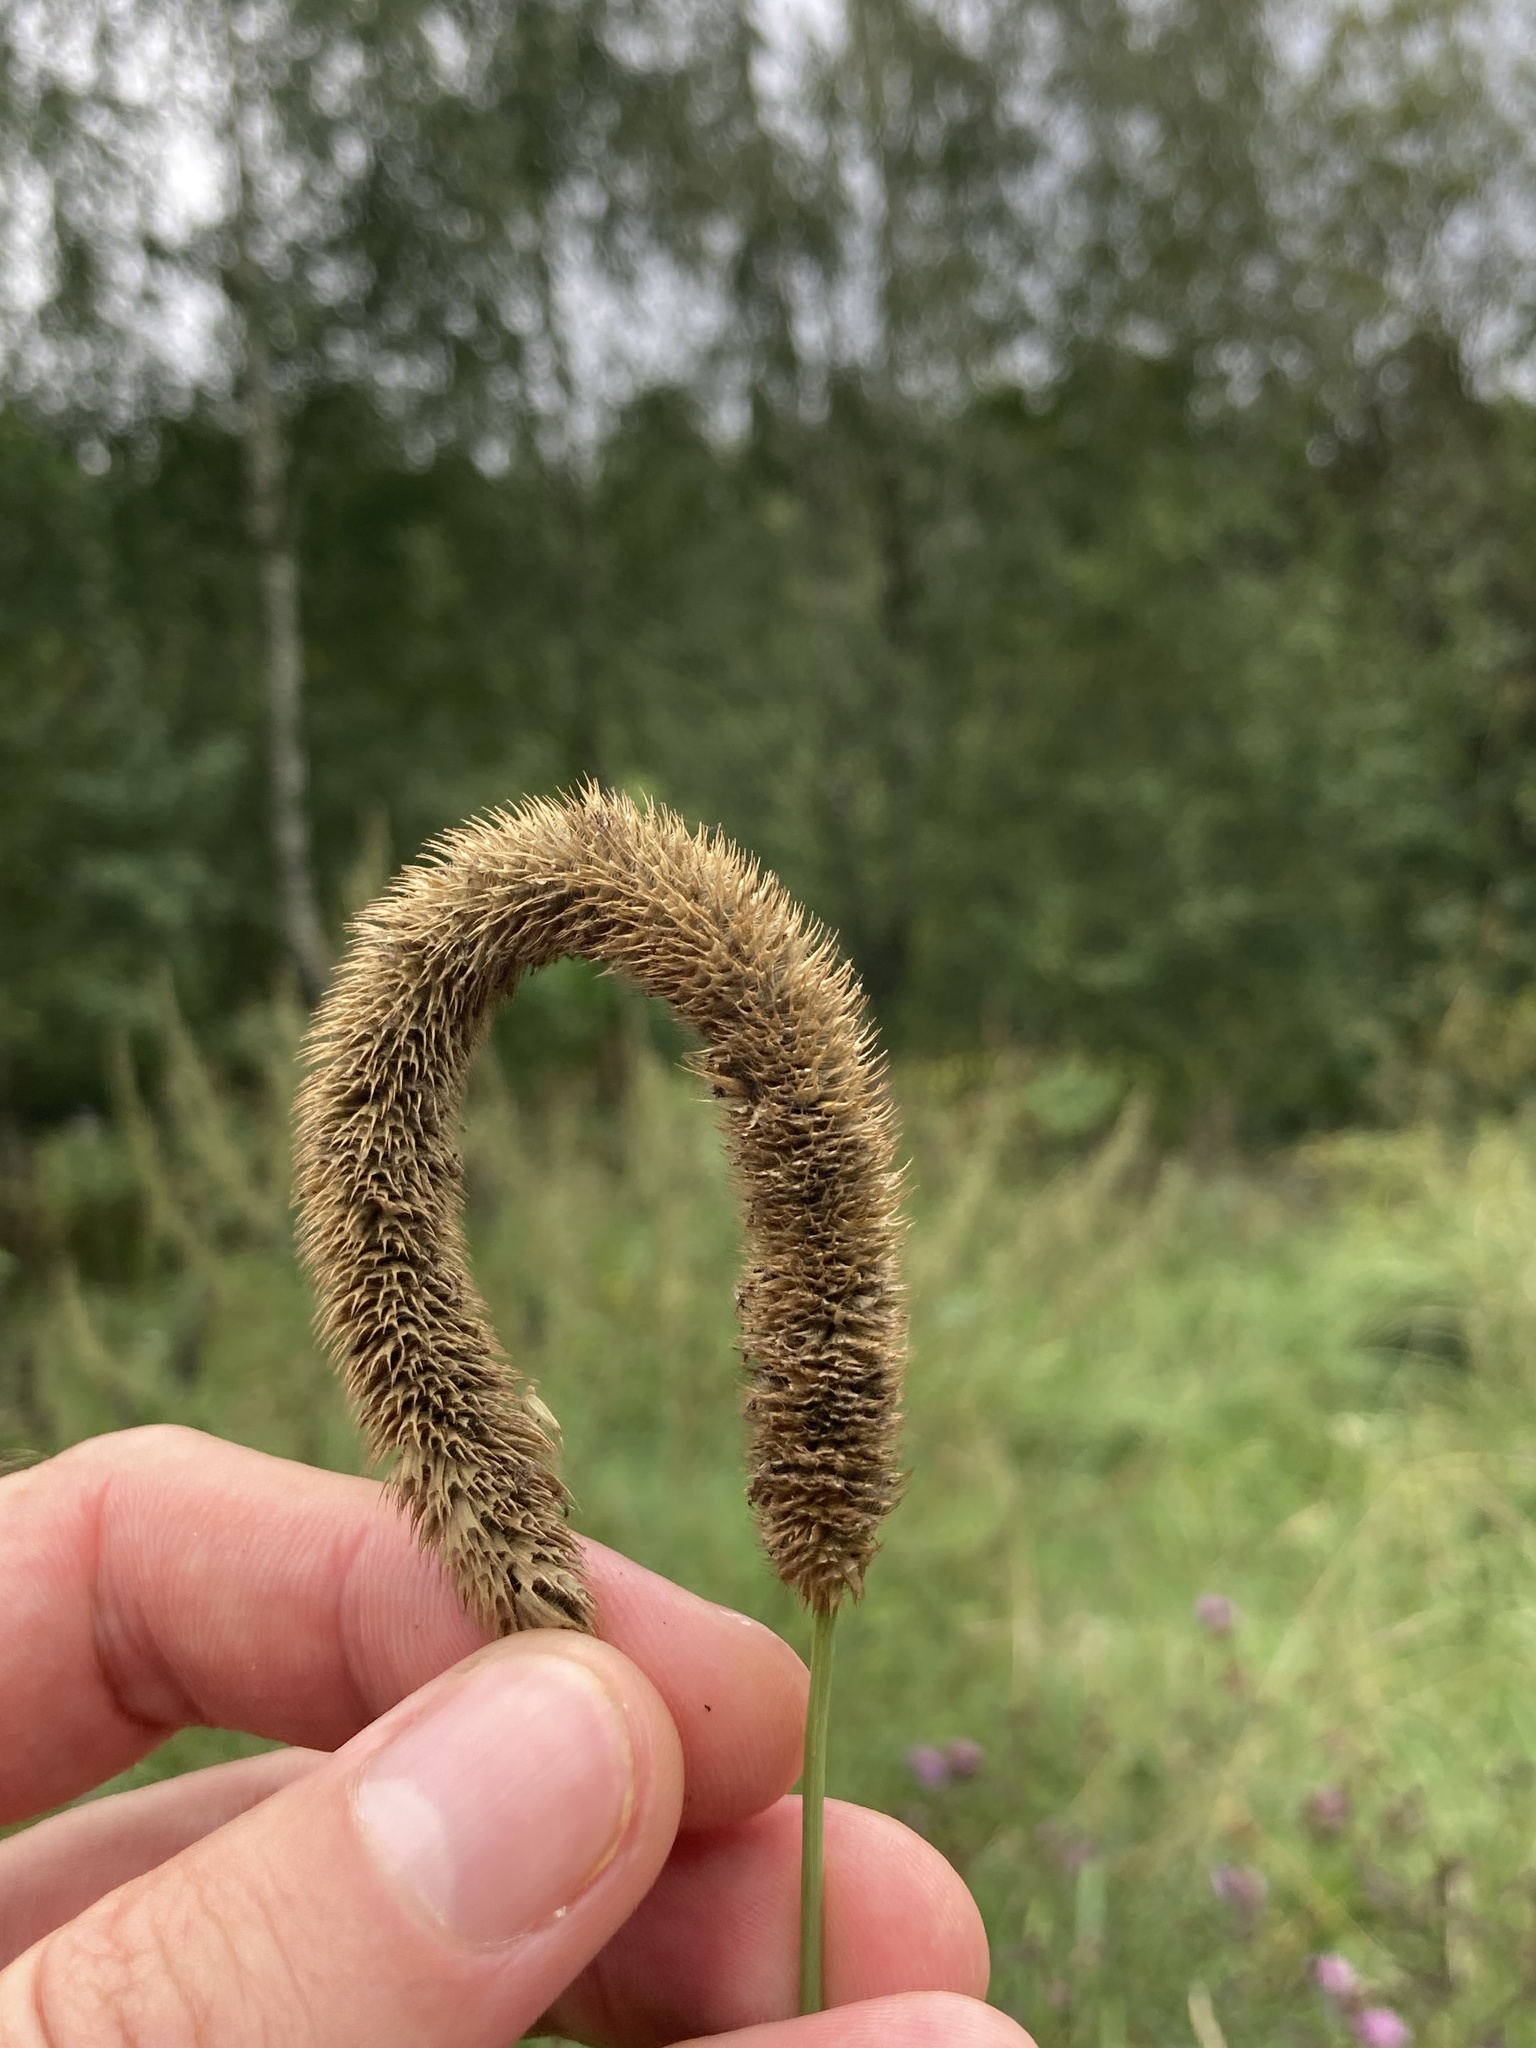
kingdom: Plantae
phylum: Tracheophyta
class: Liliopsida
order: Poales
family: Poaceae
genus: Phleum
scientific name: Phleum pratense
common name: Timothy grass
